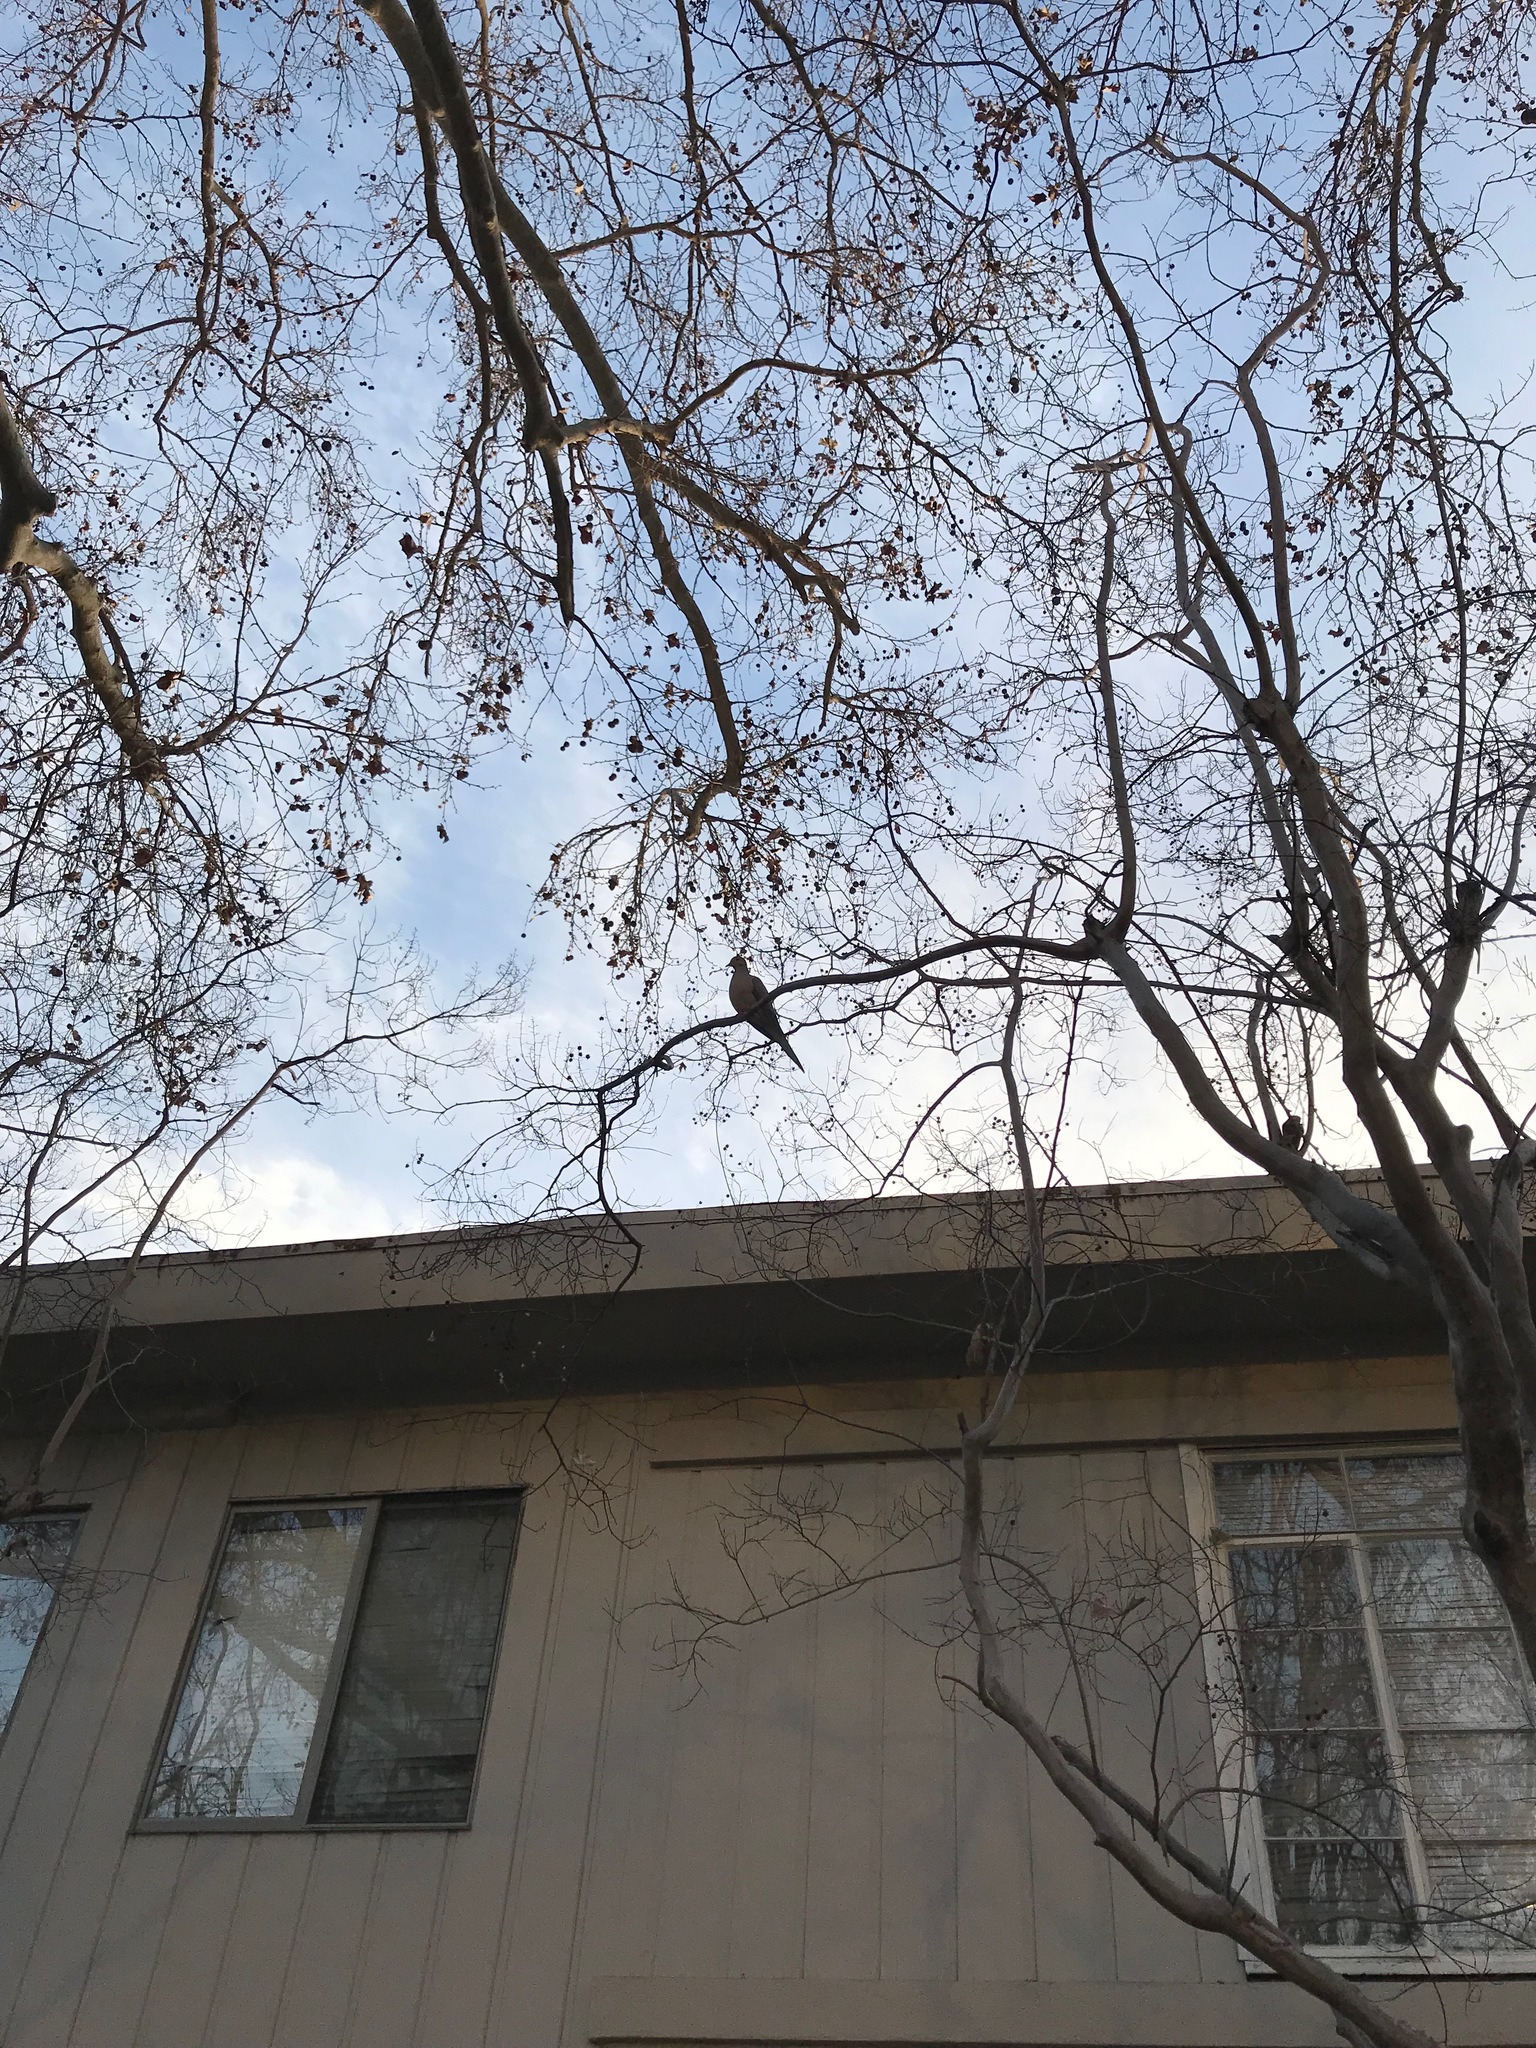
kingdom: Animalia
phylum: Chordata
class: Aves
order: Columbiformes
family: Columbidae
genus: Zenaida
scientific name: Zenaida macroura
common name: Mourning dove
